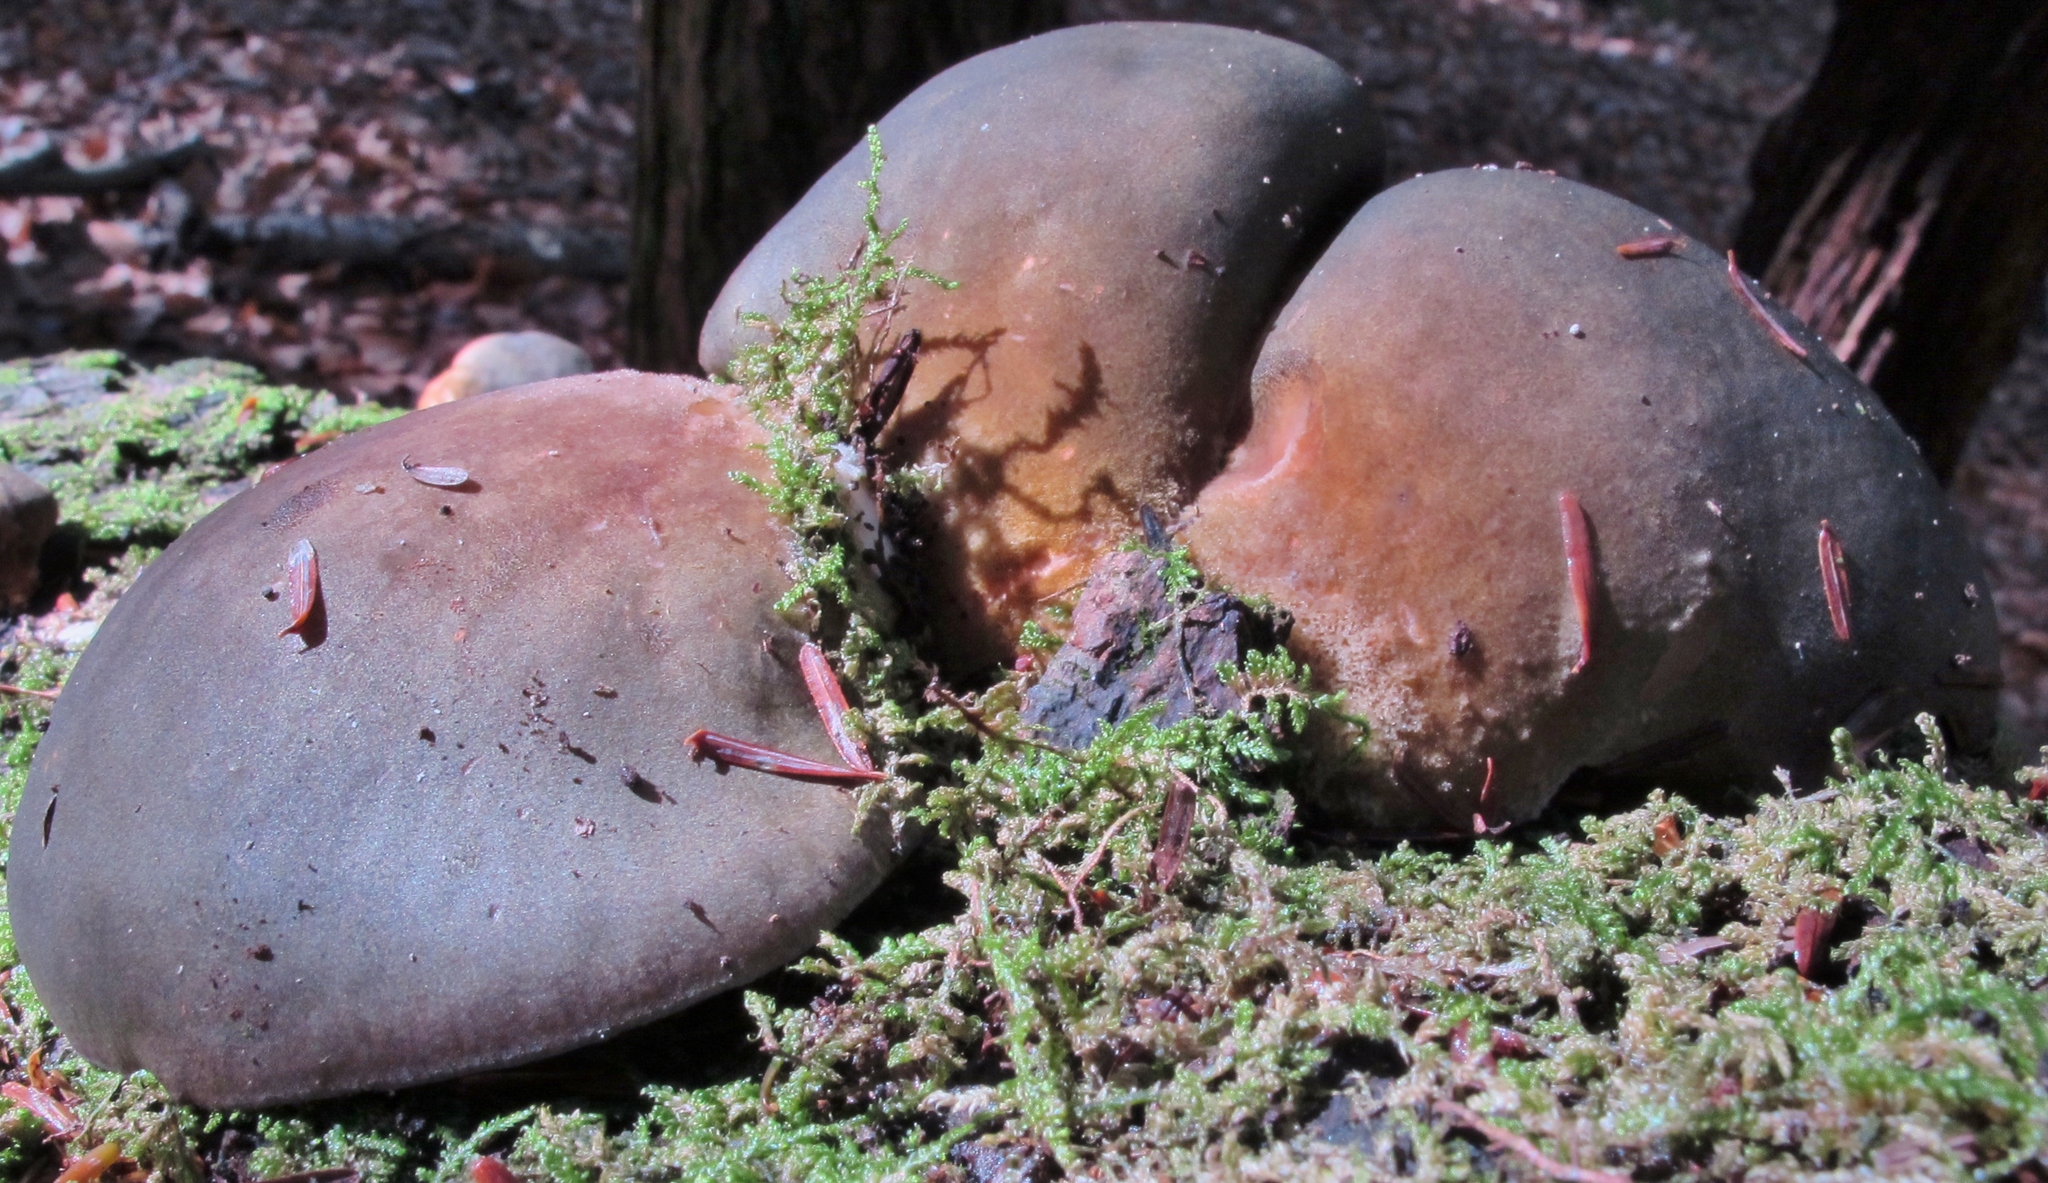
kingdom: Fungi
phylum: Basidiomycota
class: Agaricomycetes
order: Agaricales
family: Sarcomyxaceae
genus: Sarcomyxa
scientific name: Sarcomyxa serotina
